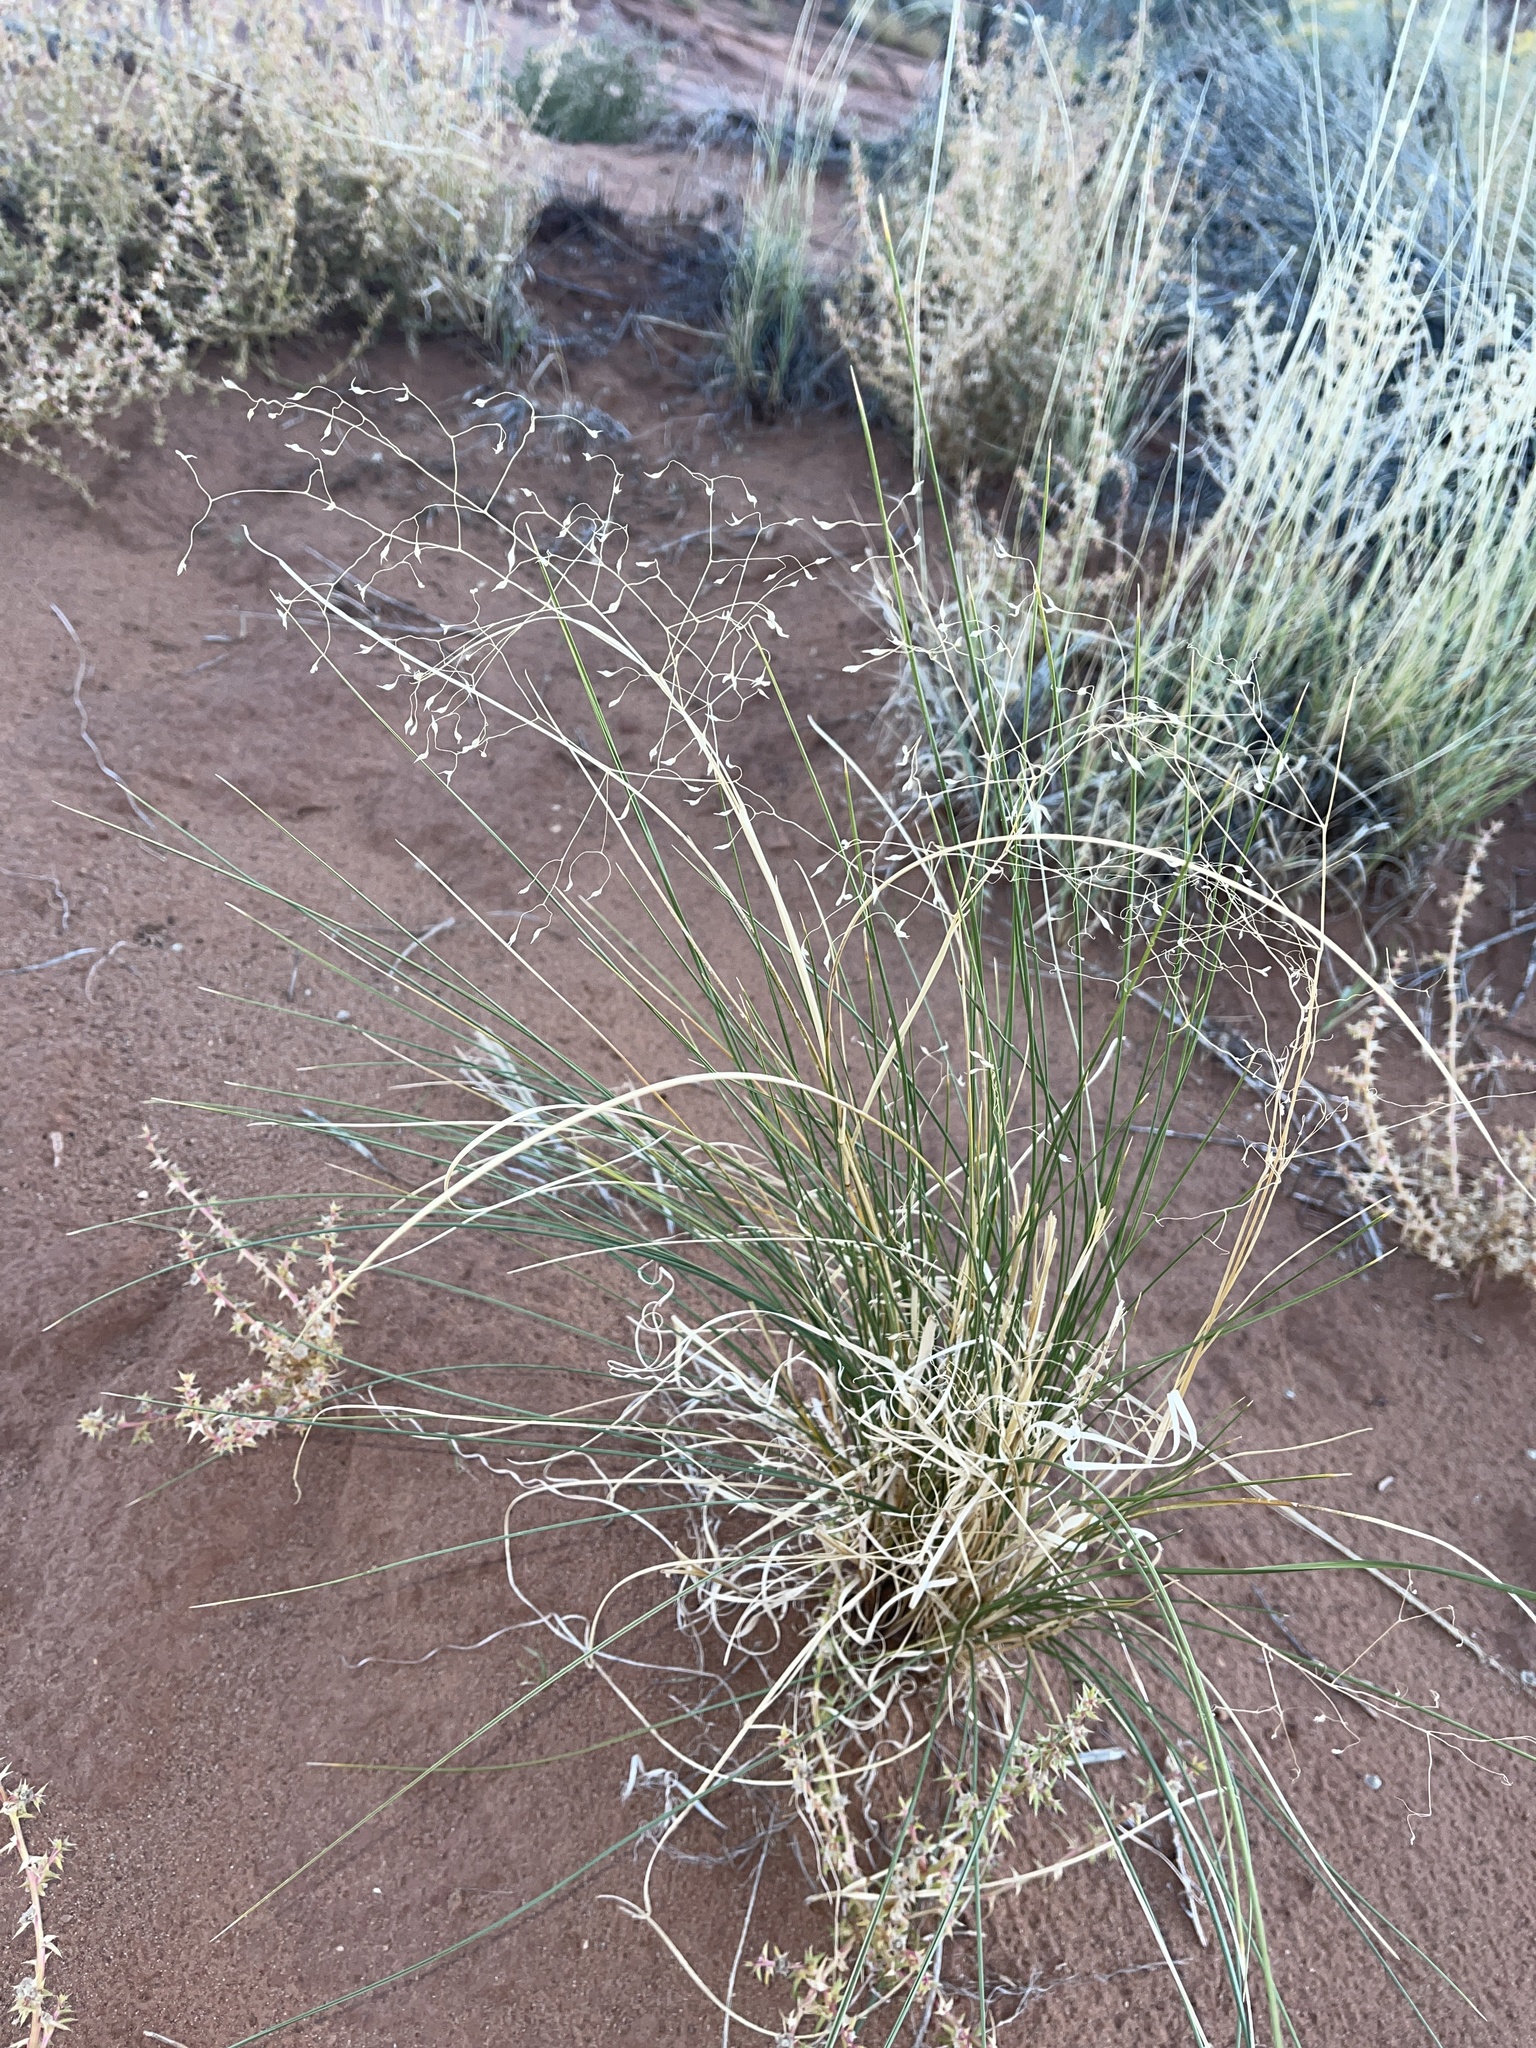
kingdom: Plantae
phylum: Tracheophyta
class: Liliopsida
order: Poales
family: Poaceae
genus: Eriocoma
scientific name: Eriocoma hymenoides
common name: Indian mountain ricegrass
